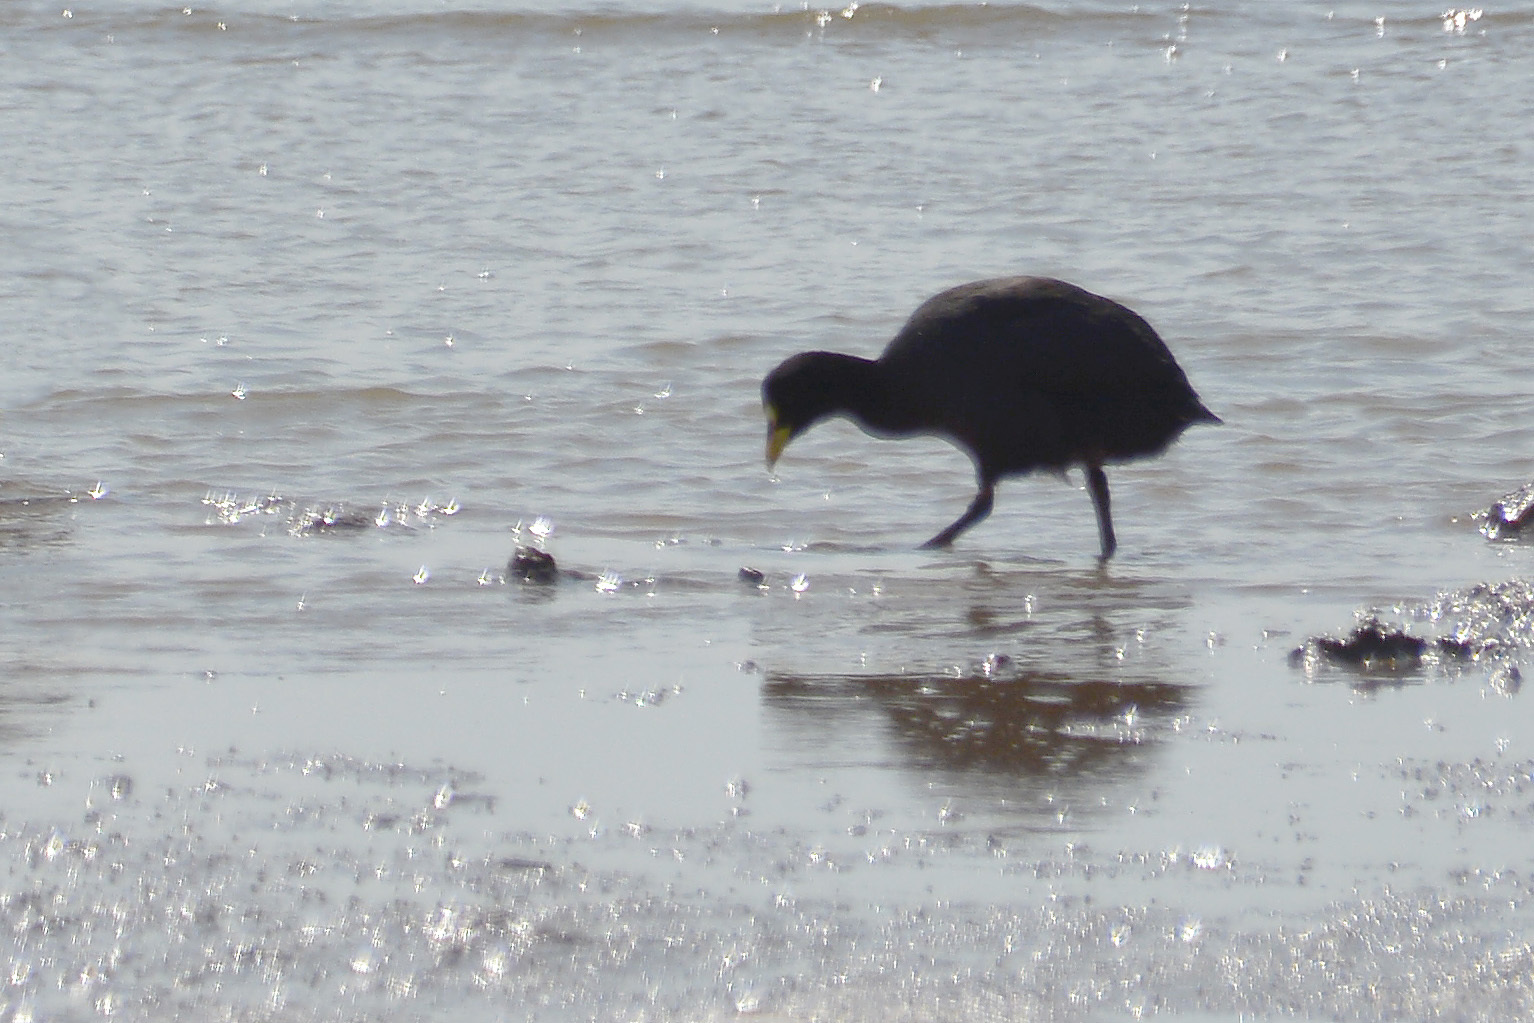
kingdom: Animalia
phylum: Chordata
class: Aves
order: Gruiformes
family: Rallidae
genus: Fulica
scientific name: Fulica armillata
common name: Red-gartered coot
